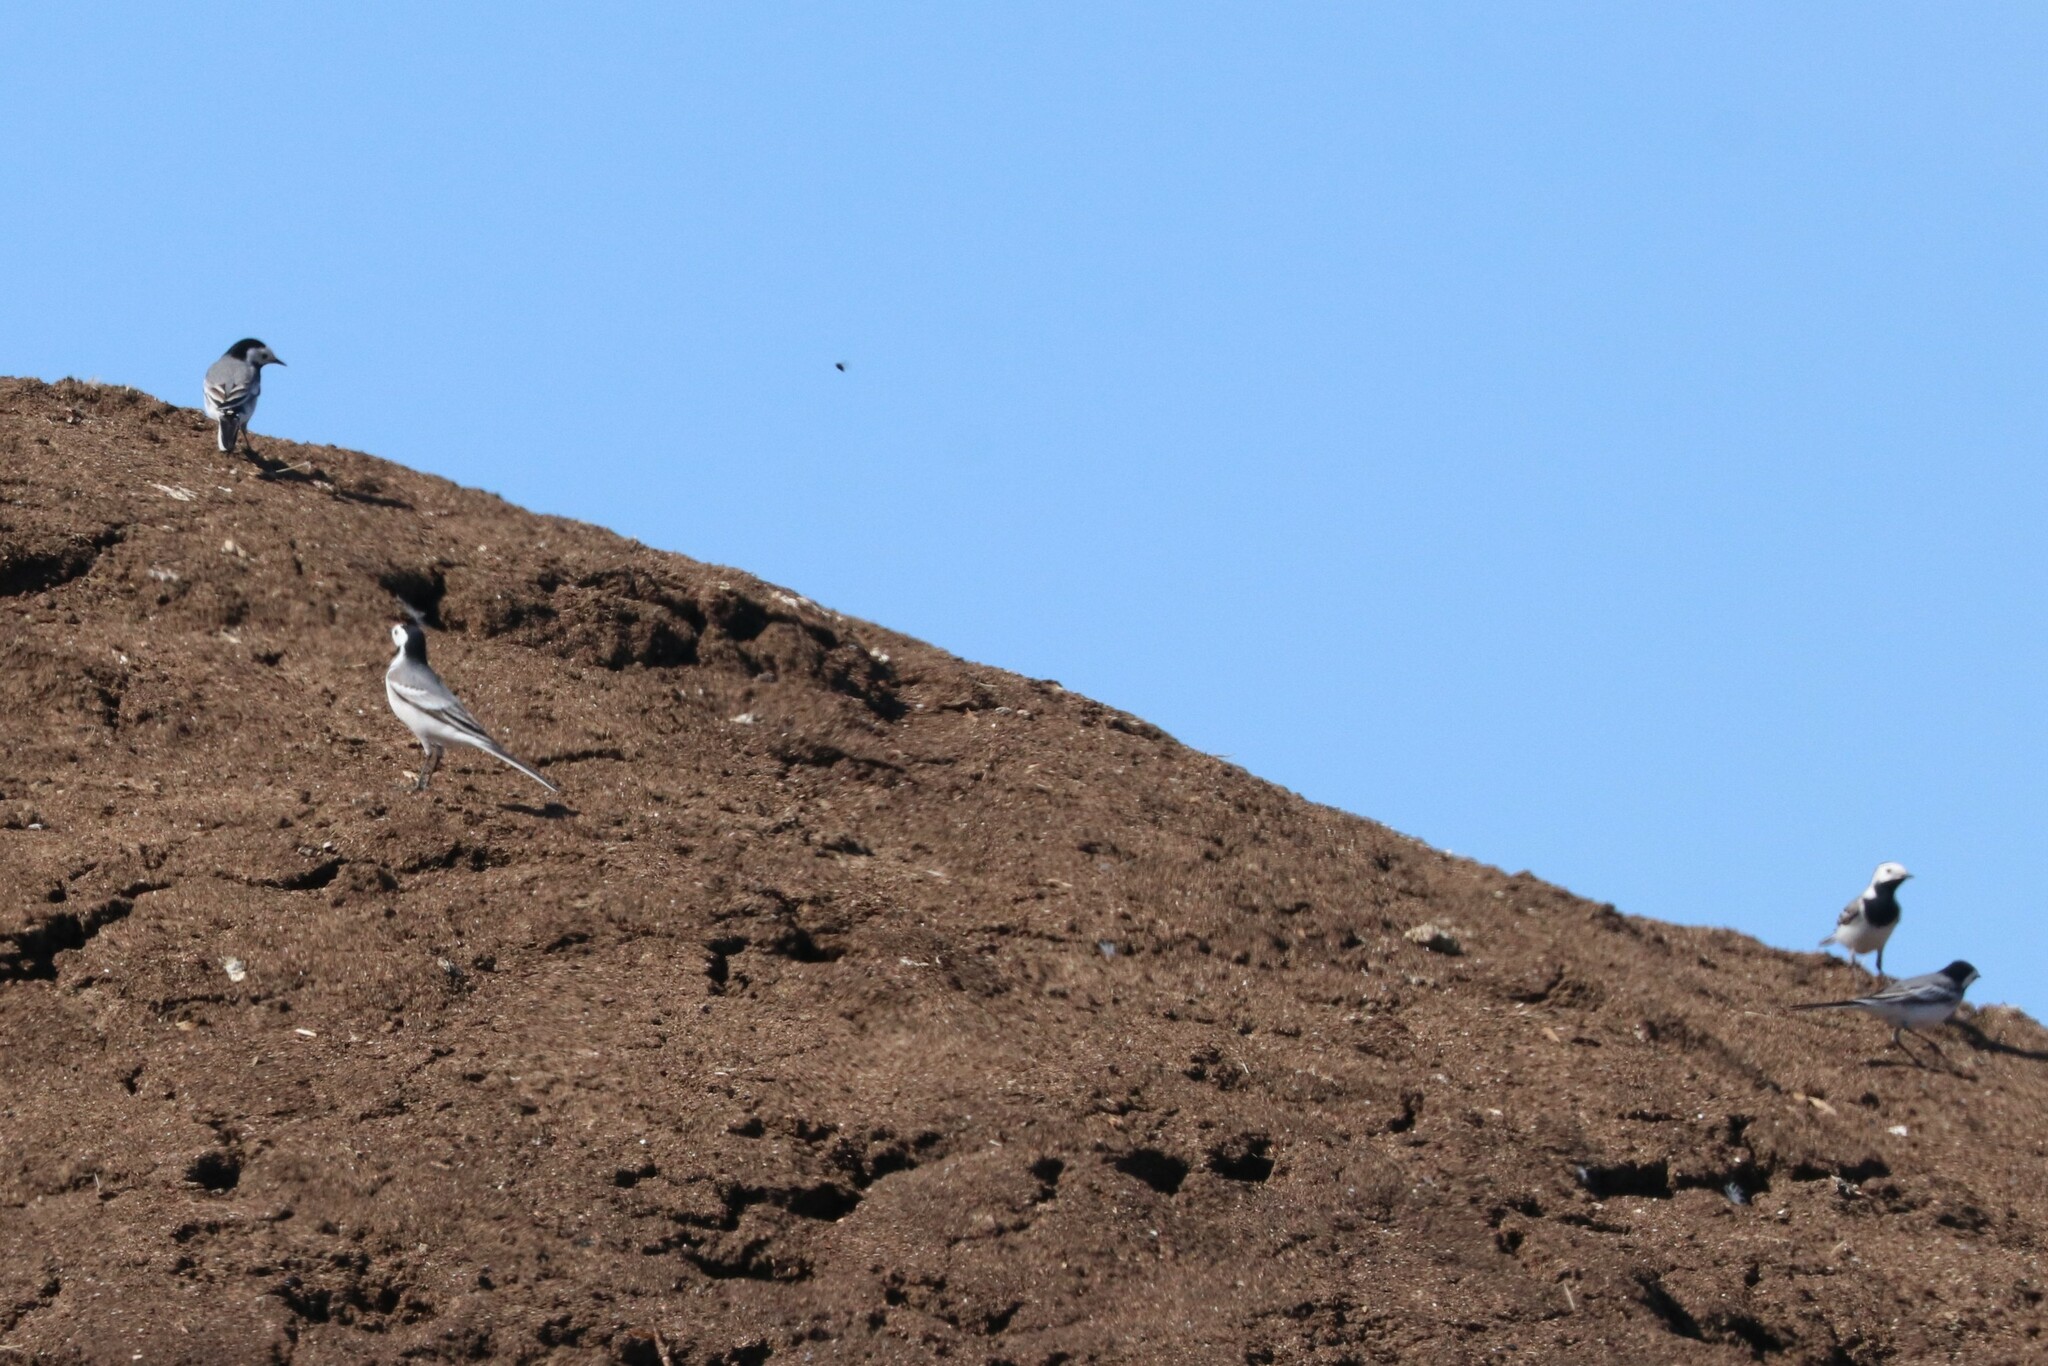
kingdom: Animalia
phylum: Chordata
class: Aves
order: Passeriformes
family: Motacillidae
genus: Motacilla
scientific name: Motacilla alba
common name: White wagtail
